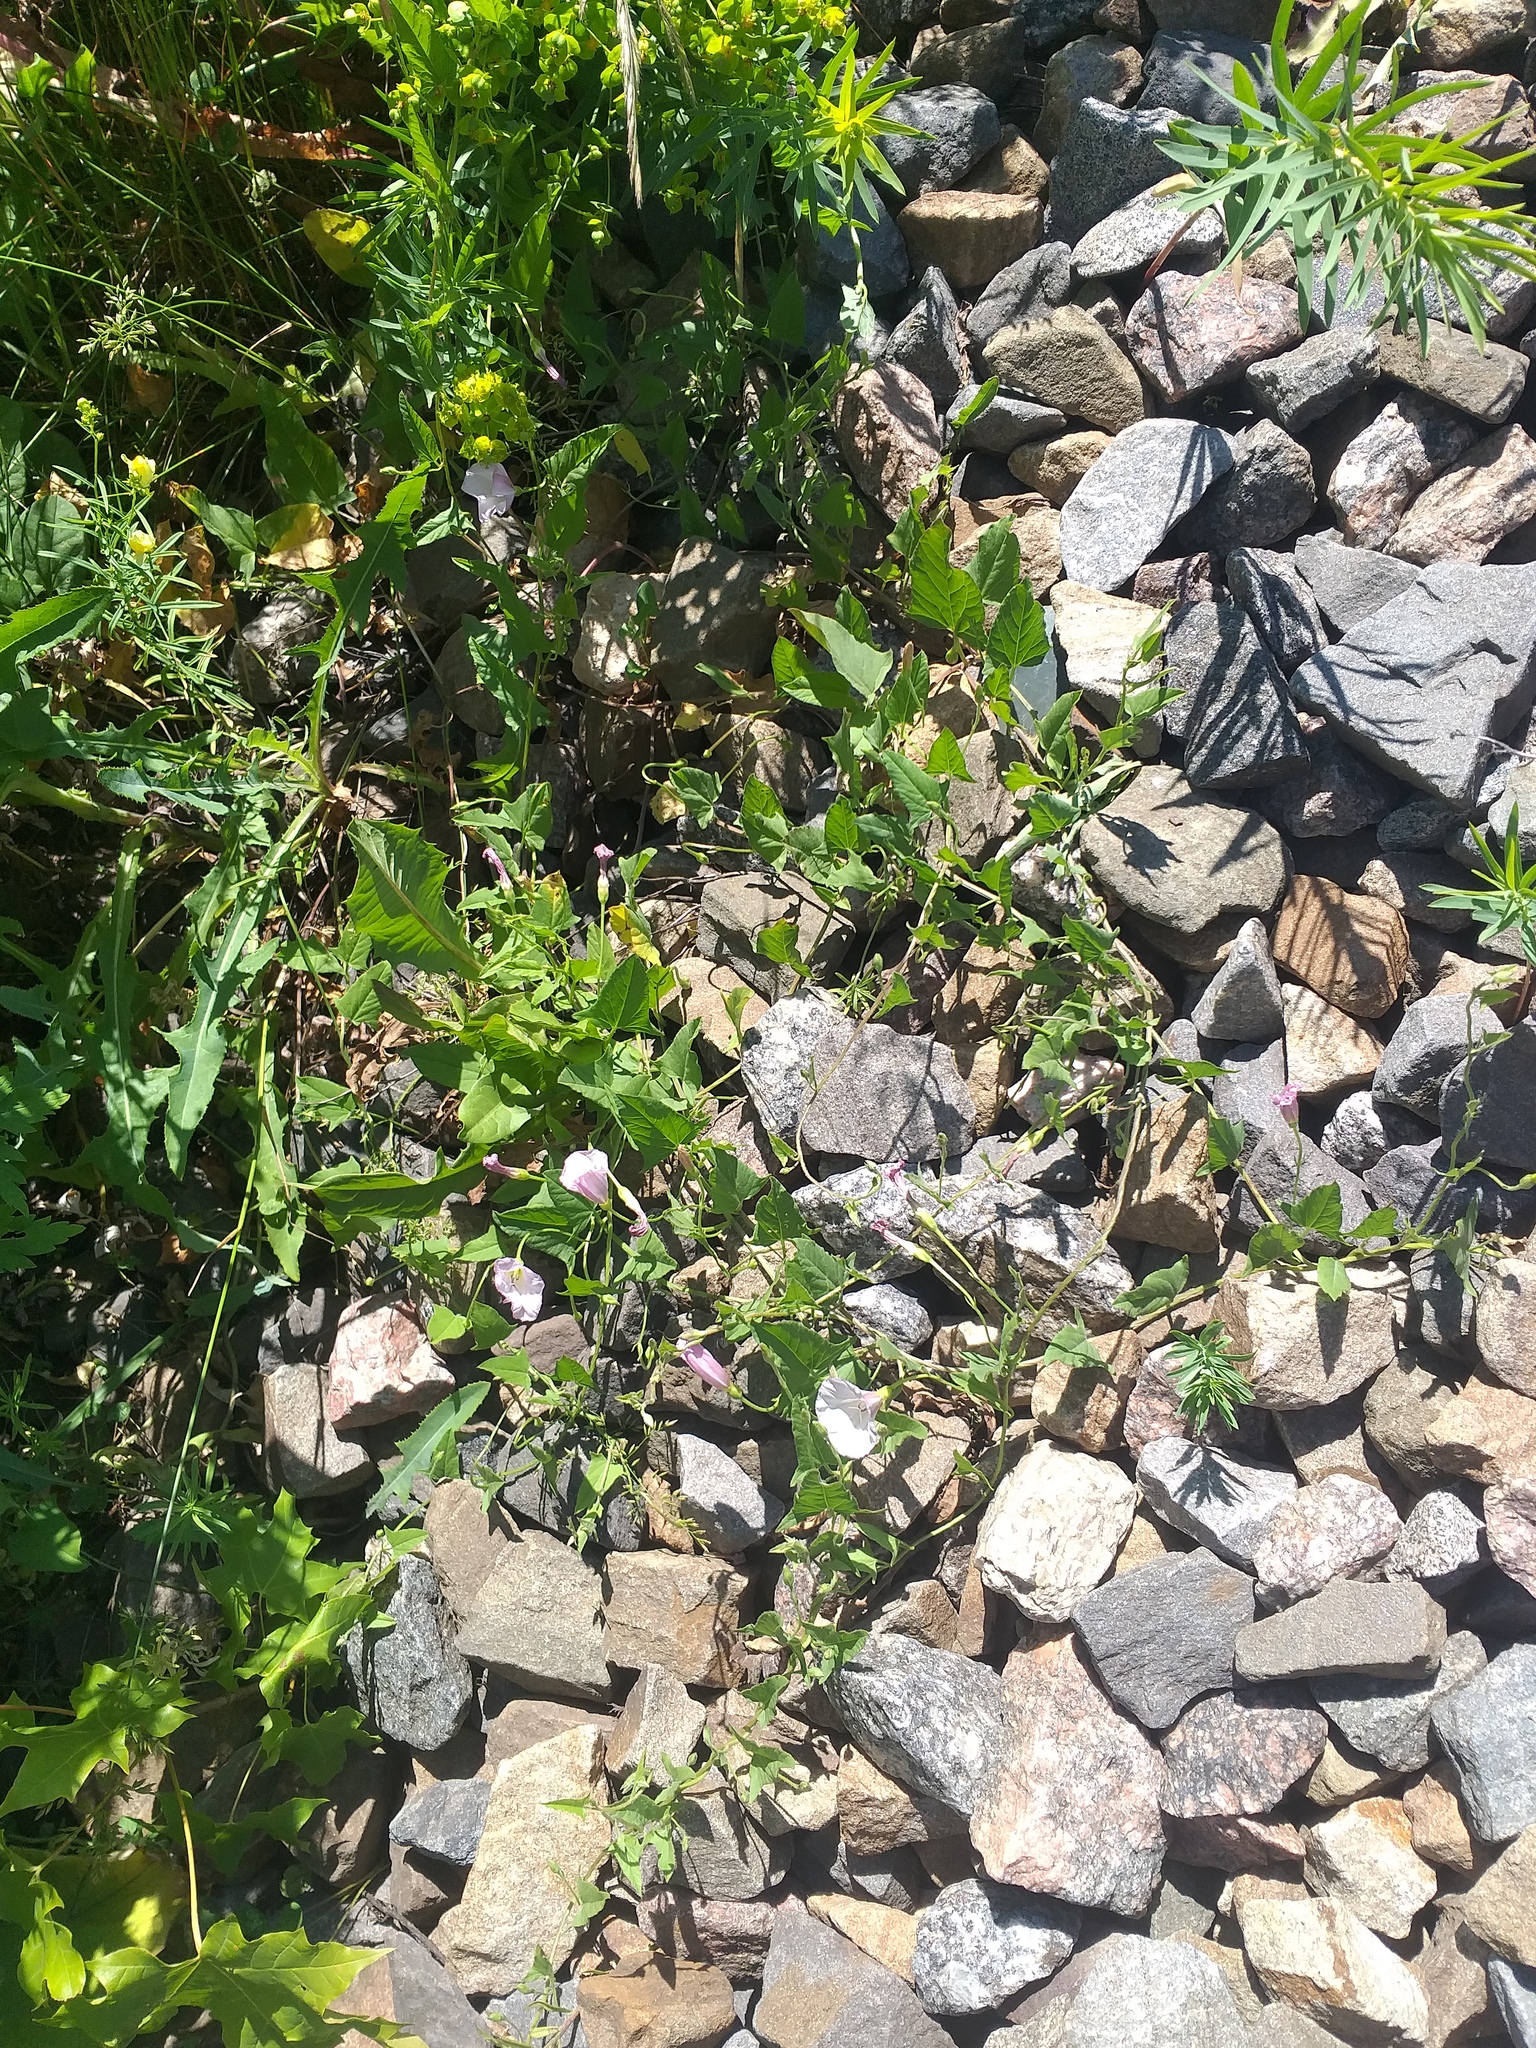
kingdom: Plantae
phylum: Tracheophyta
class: Magnoliopsida
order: Solanales
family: Convolvulaceae
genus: Convolvulus
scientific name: Convolvulus arvensis
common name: Field bindweed
